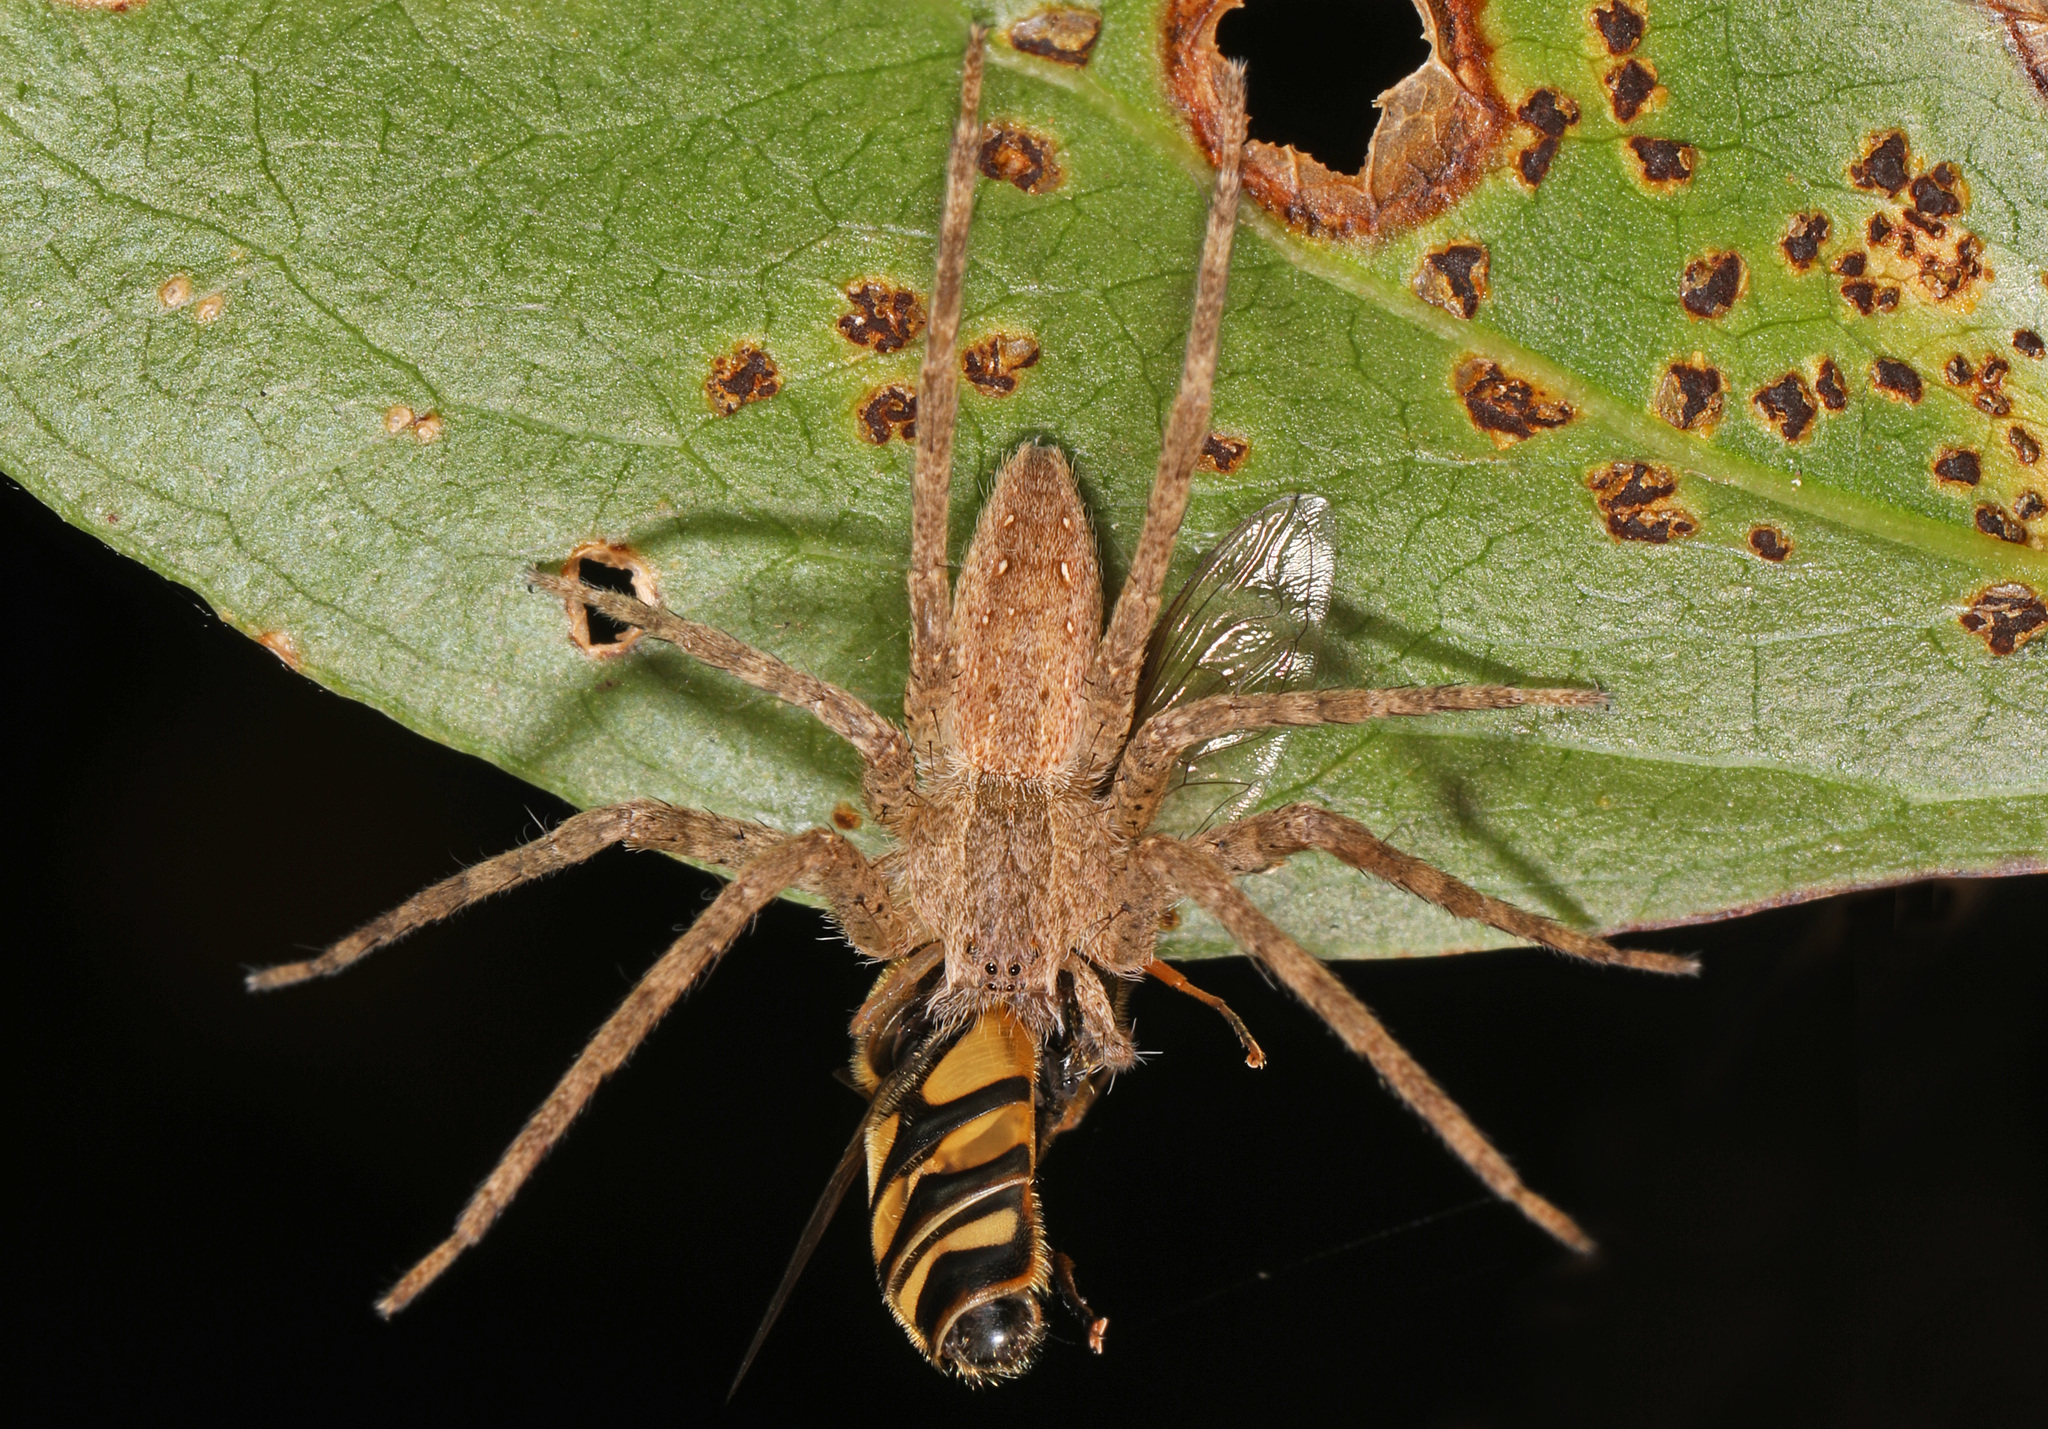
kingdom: Animalia
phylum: Arthropoda
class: Arachnida
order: Araneae
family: Pisauridae
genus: Pisaurina
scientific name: Pisaurina mira
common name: American nursery web spider
